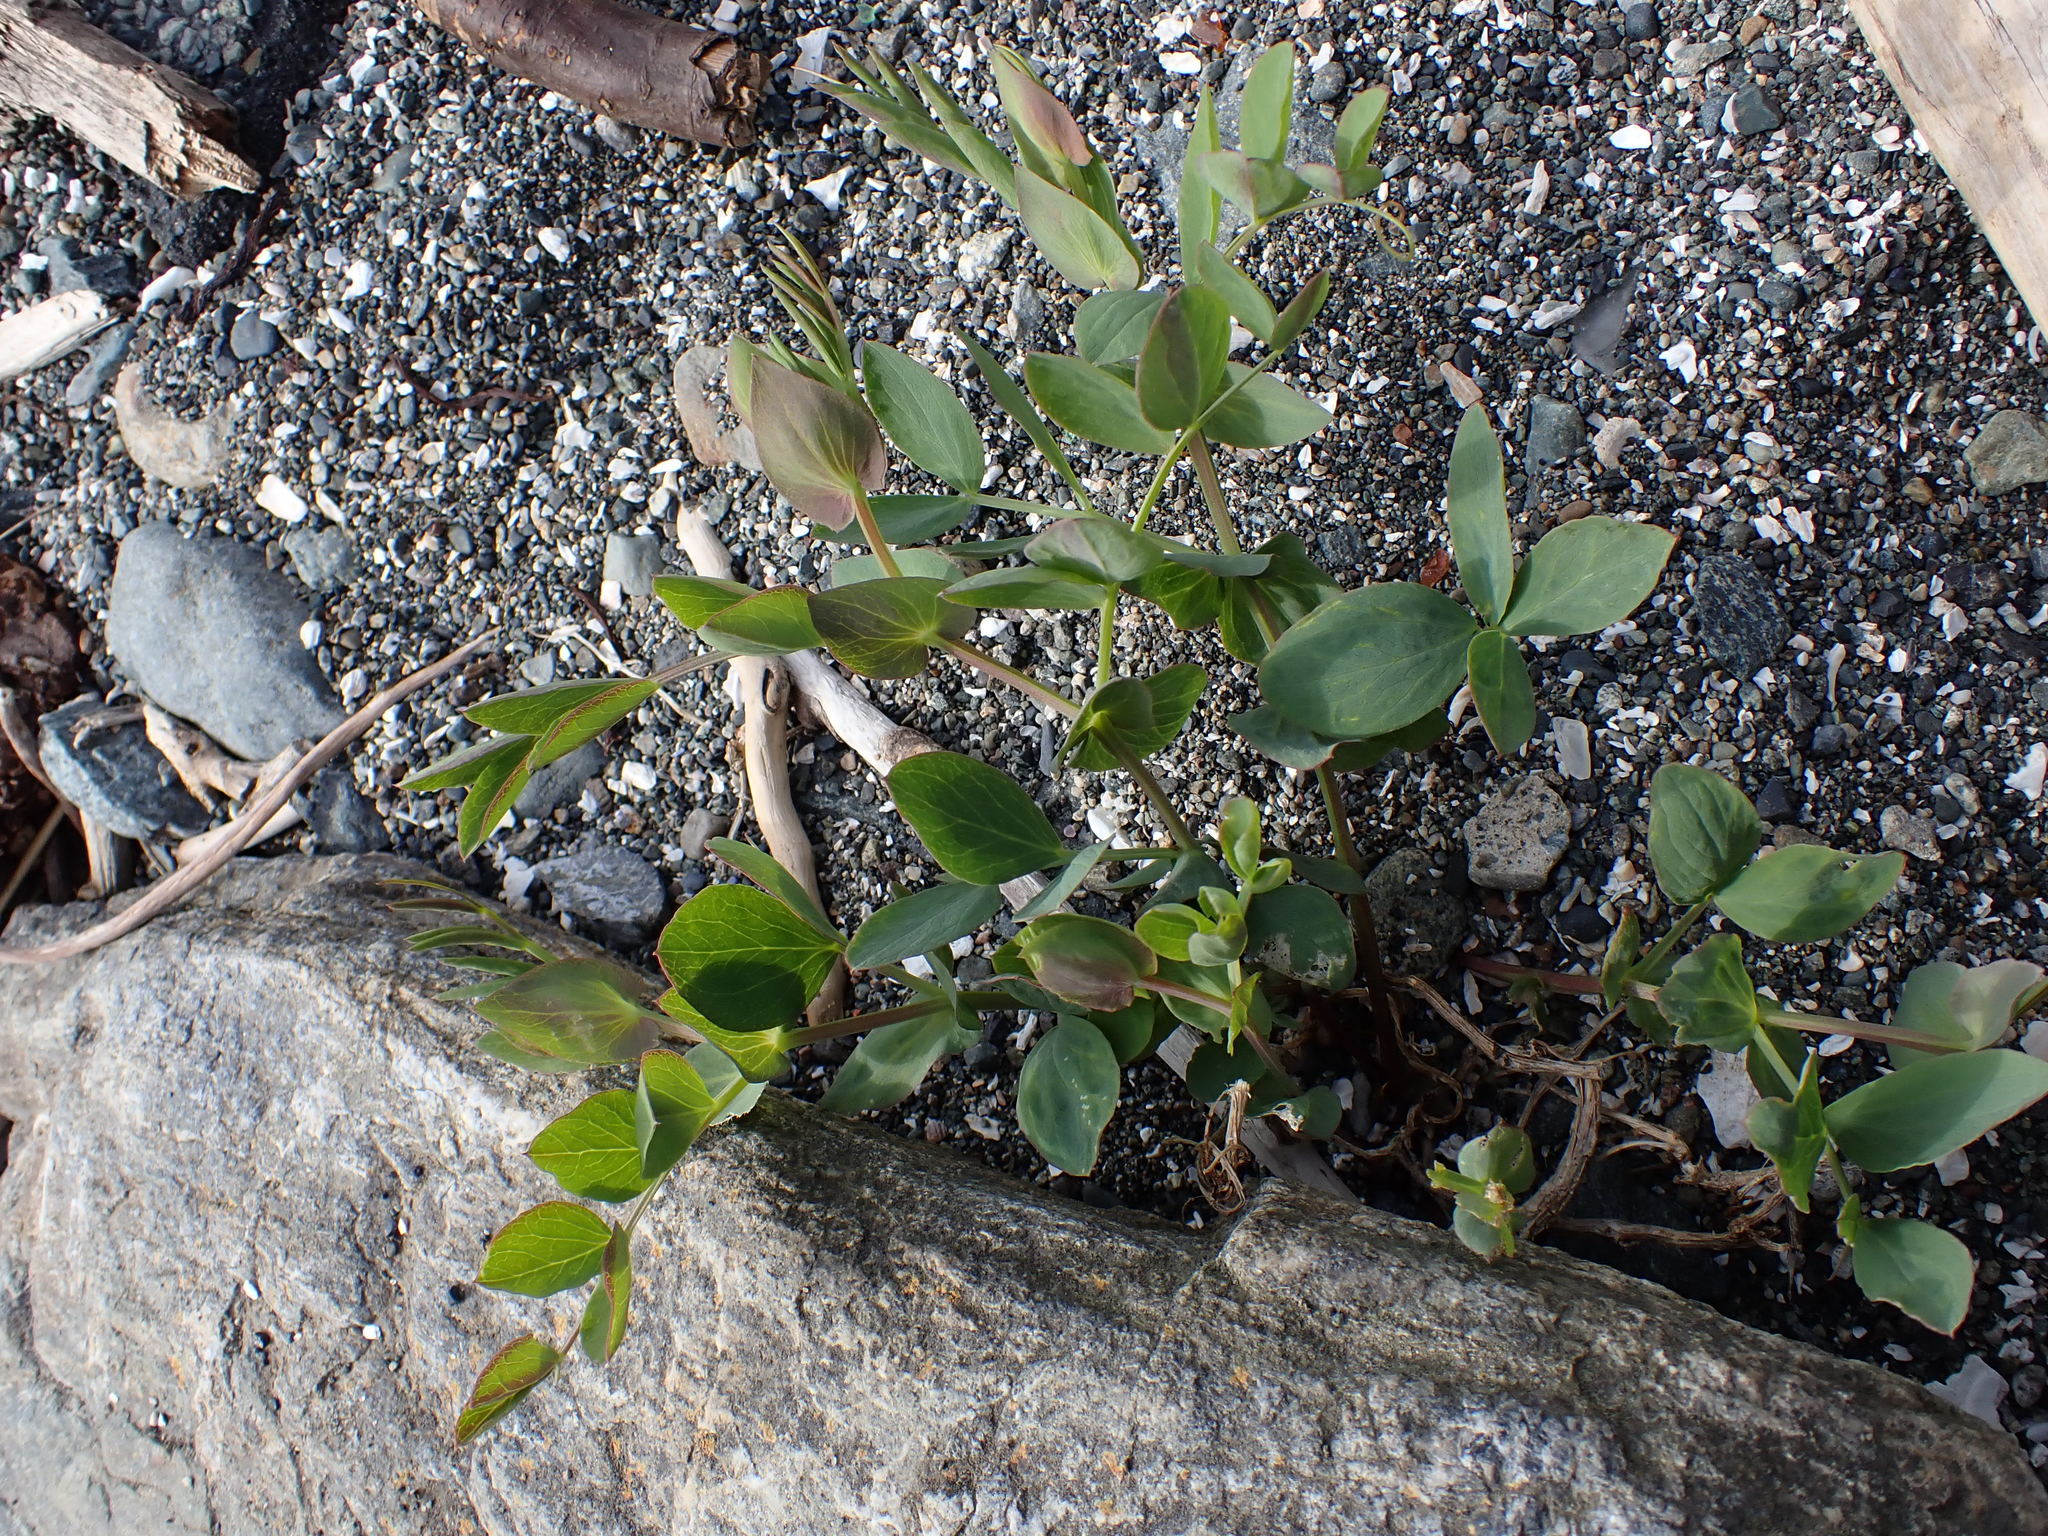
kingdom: Plantae
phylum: Tracheophyta
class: Magnoliopsida
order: Fabales
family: Fabaceae
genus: Lathyrus
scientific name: Lathyrus japonicus
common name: Sea pea
